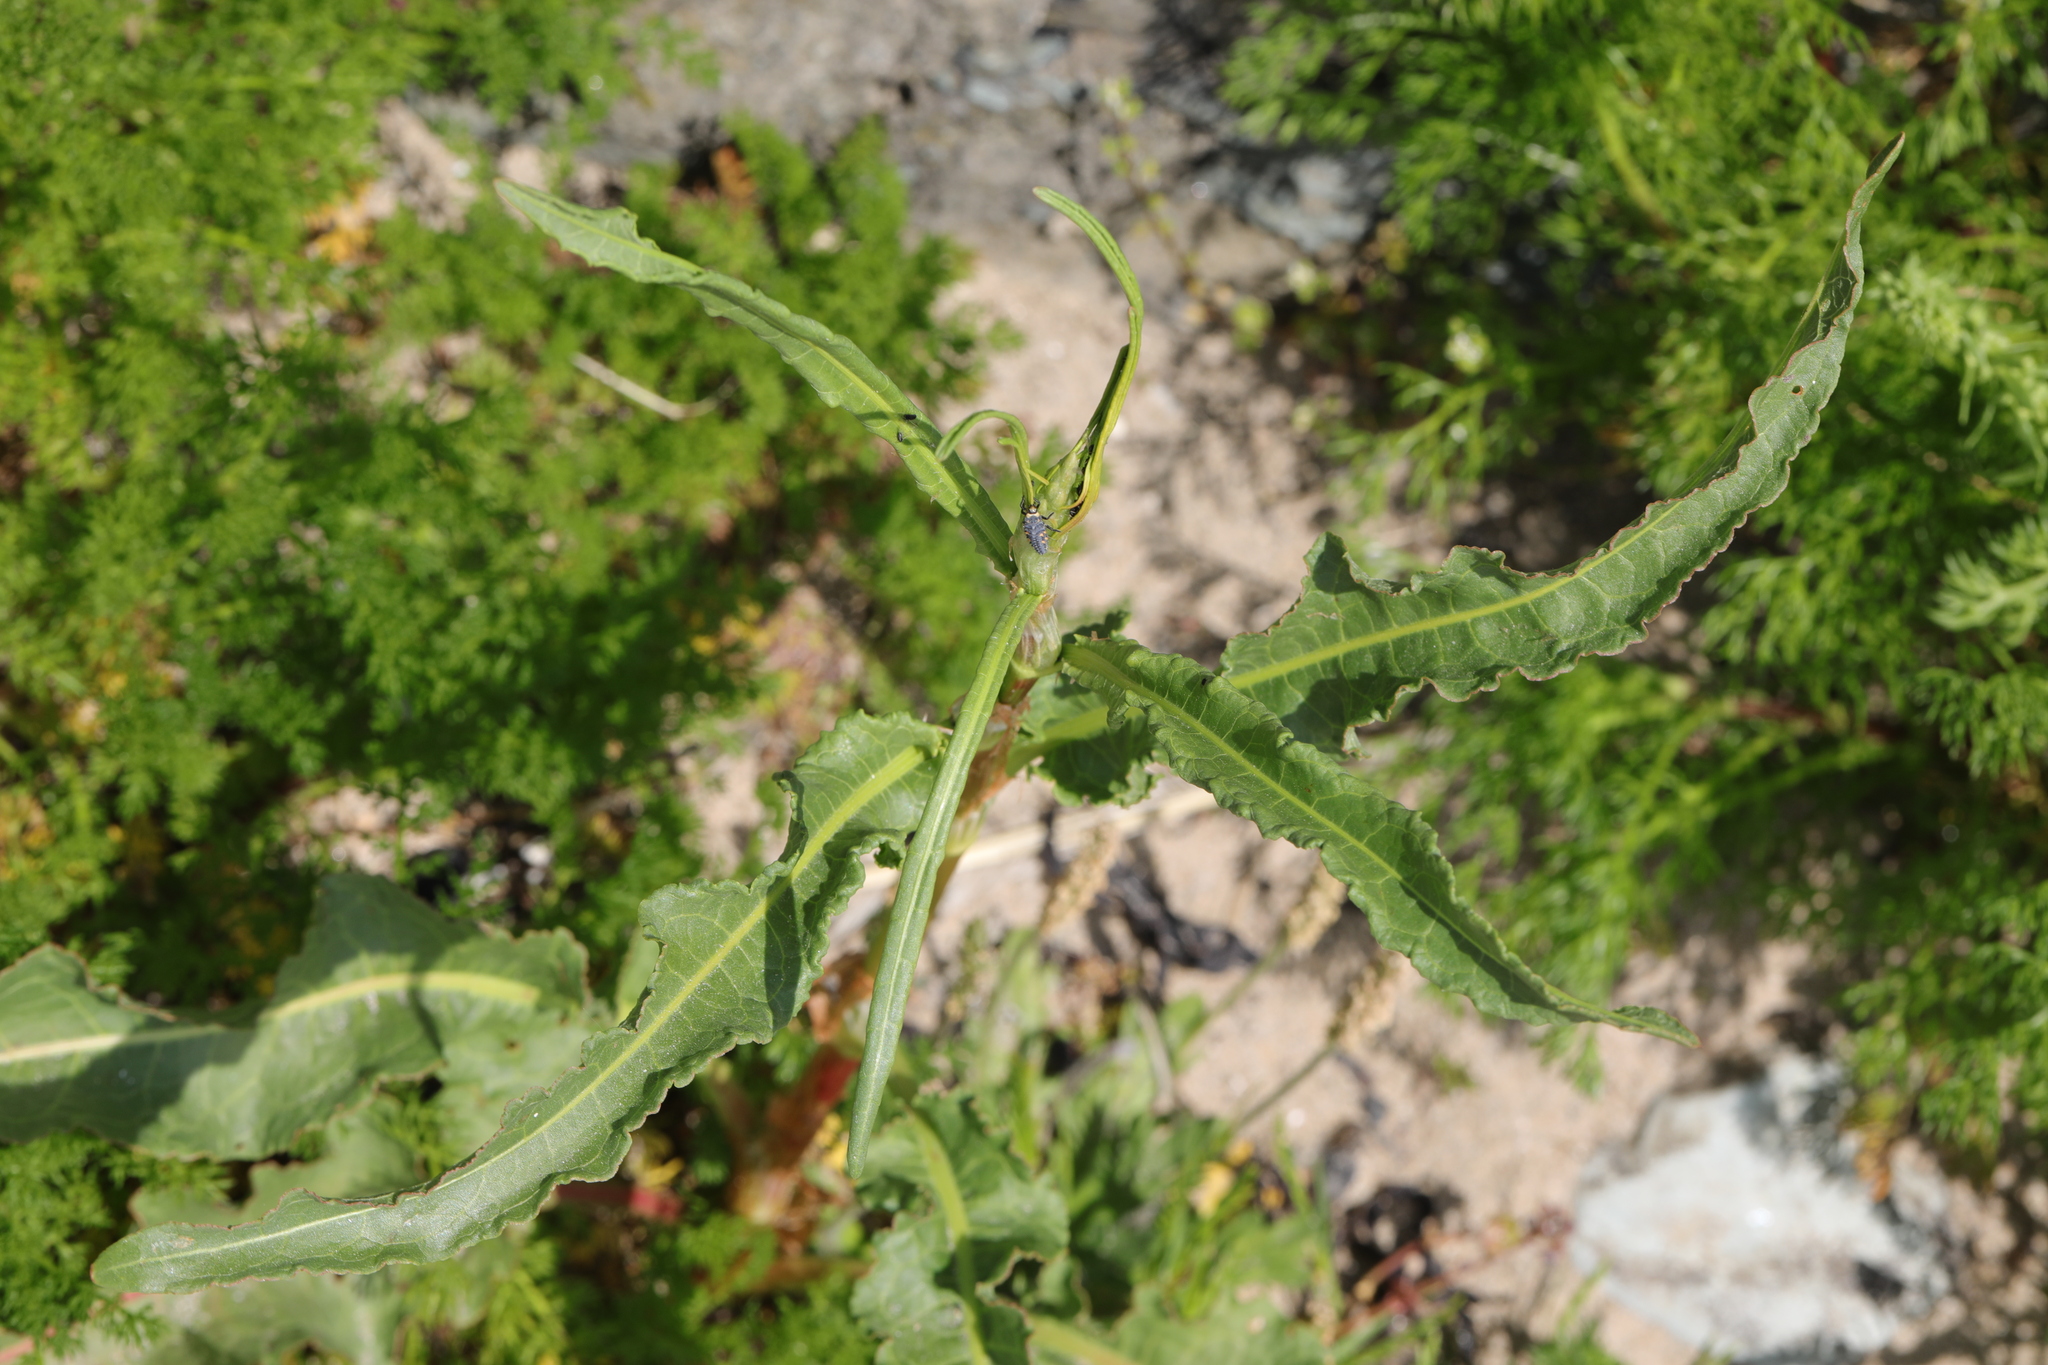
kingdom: Plantae
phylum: Tracheophyta
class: Magnoliopsida
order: Caryophyllales
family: Polygonaceae
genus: Rumex
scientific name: Rumex crispus
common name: Curled dock
